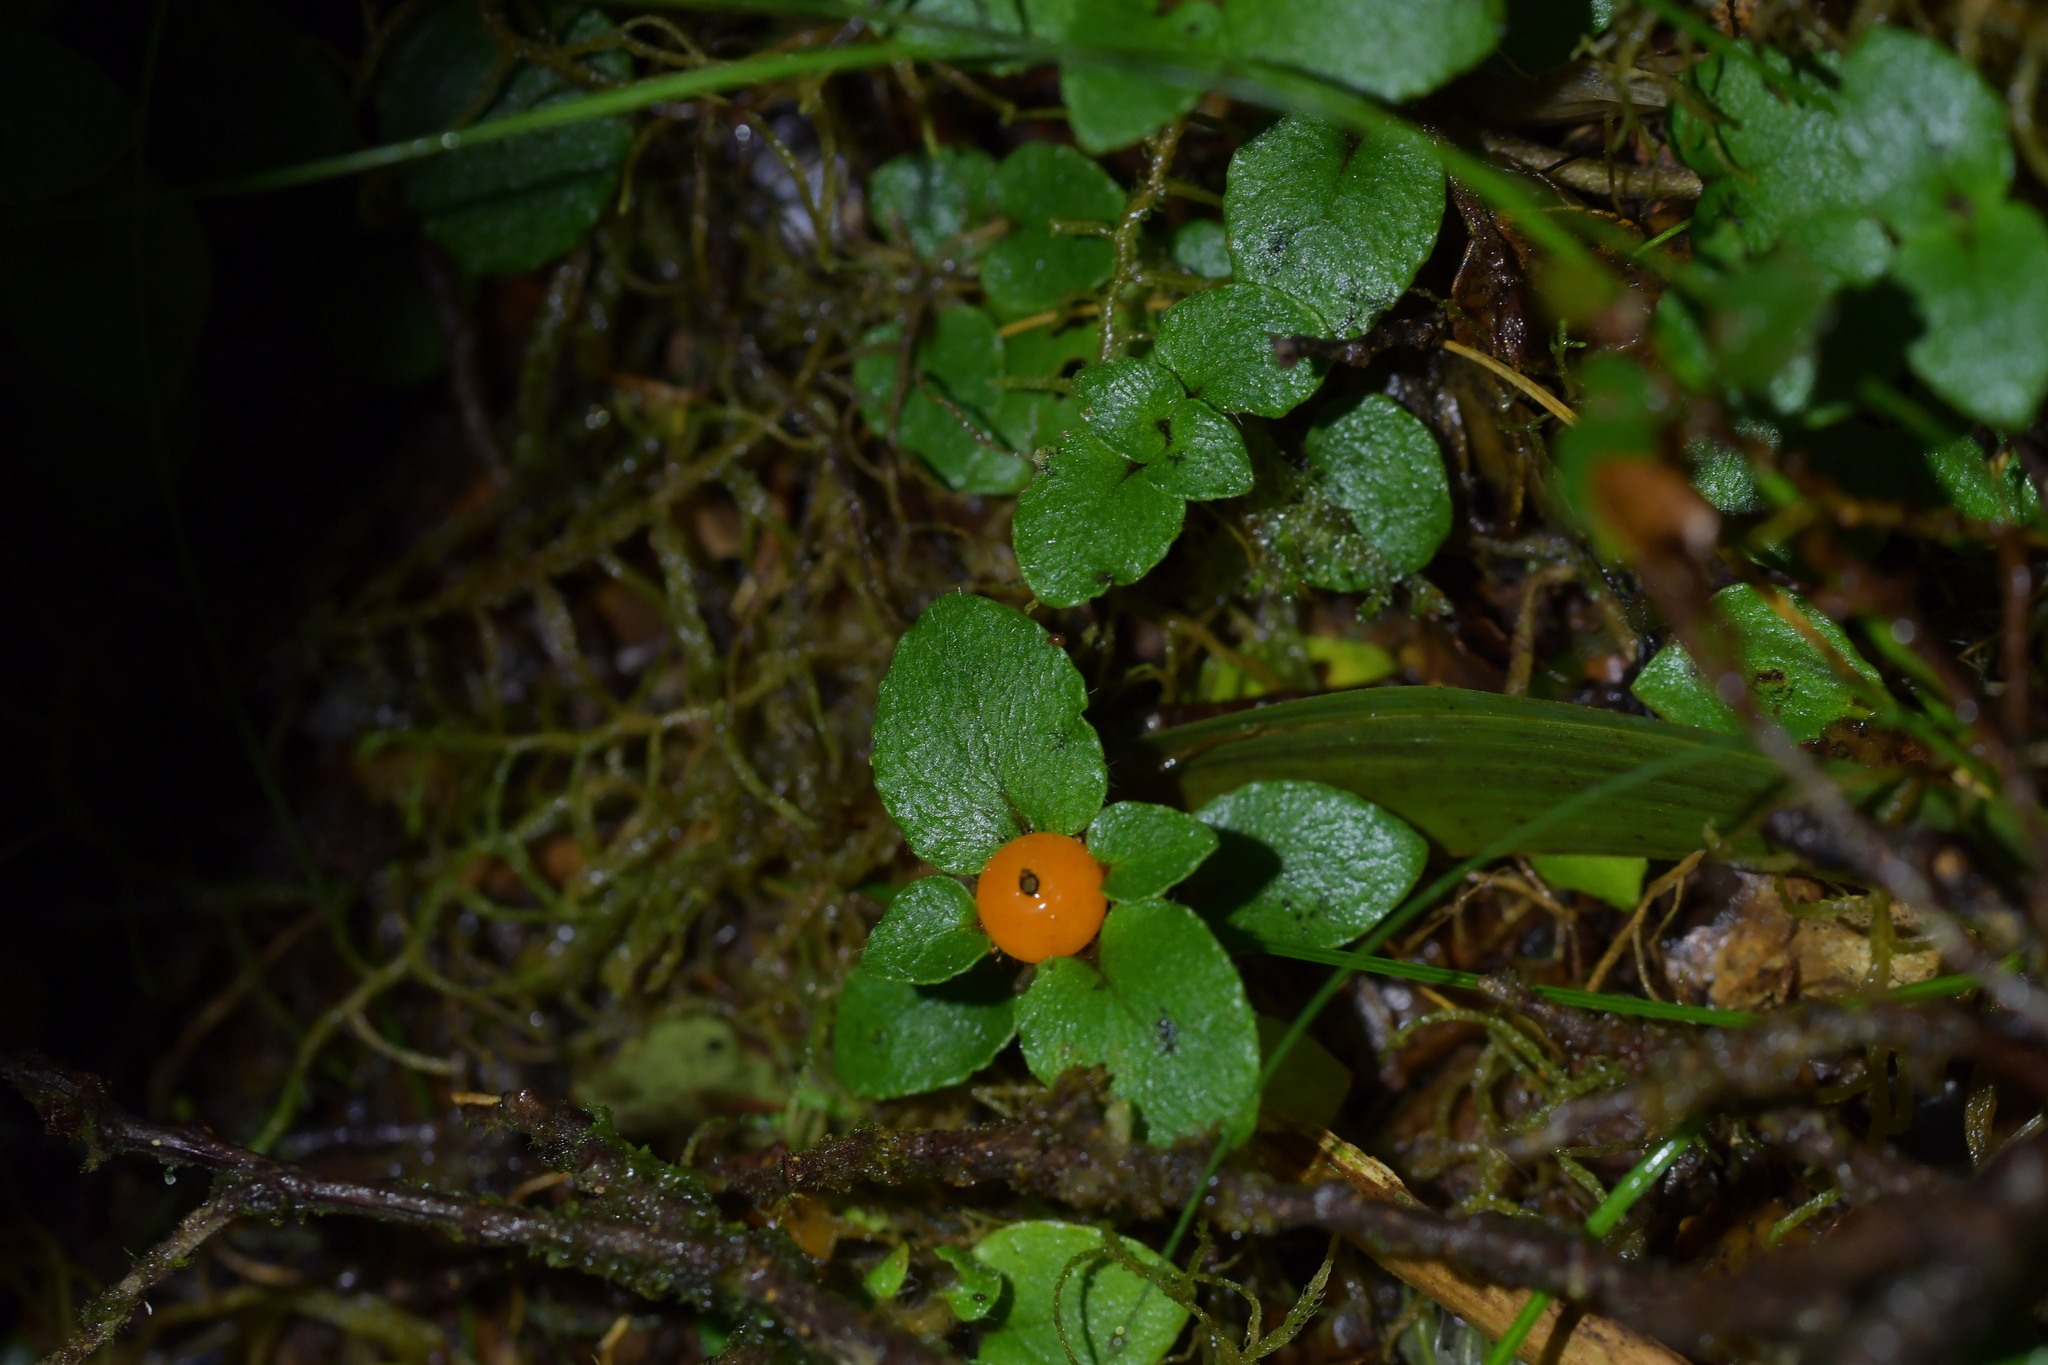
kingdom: Plantae
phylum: Tracheophyta
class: Magnoliopsida
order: Gentianales
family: Rubiaceae
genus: Nertera
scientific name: Nertera villosa
